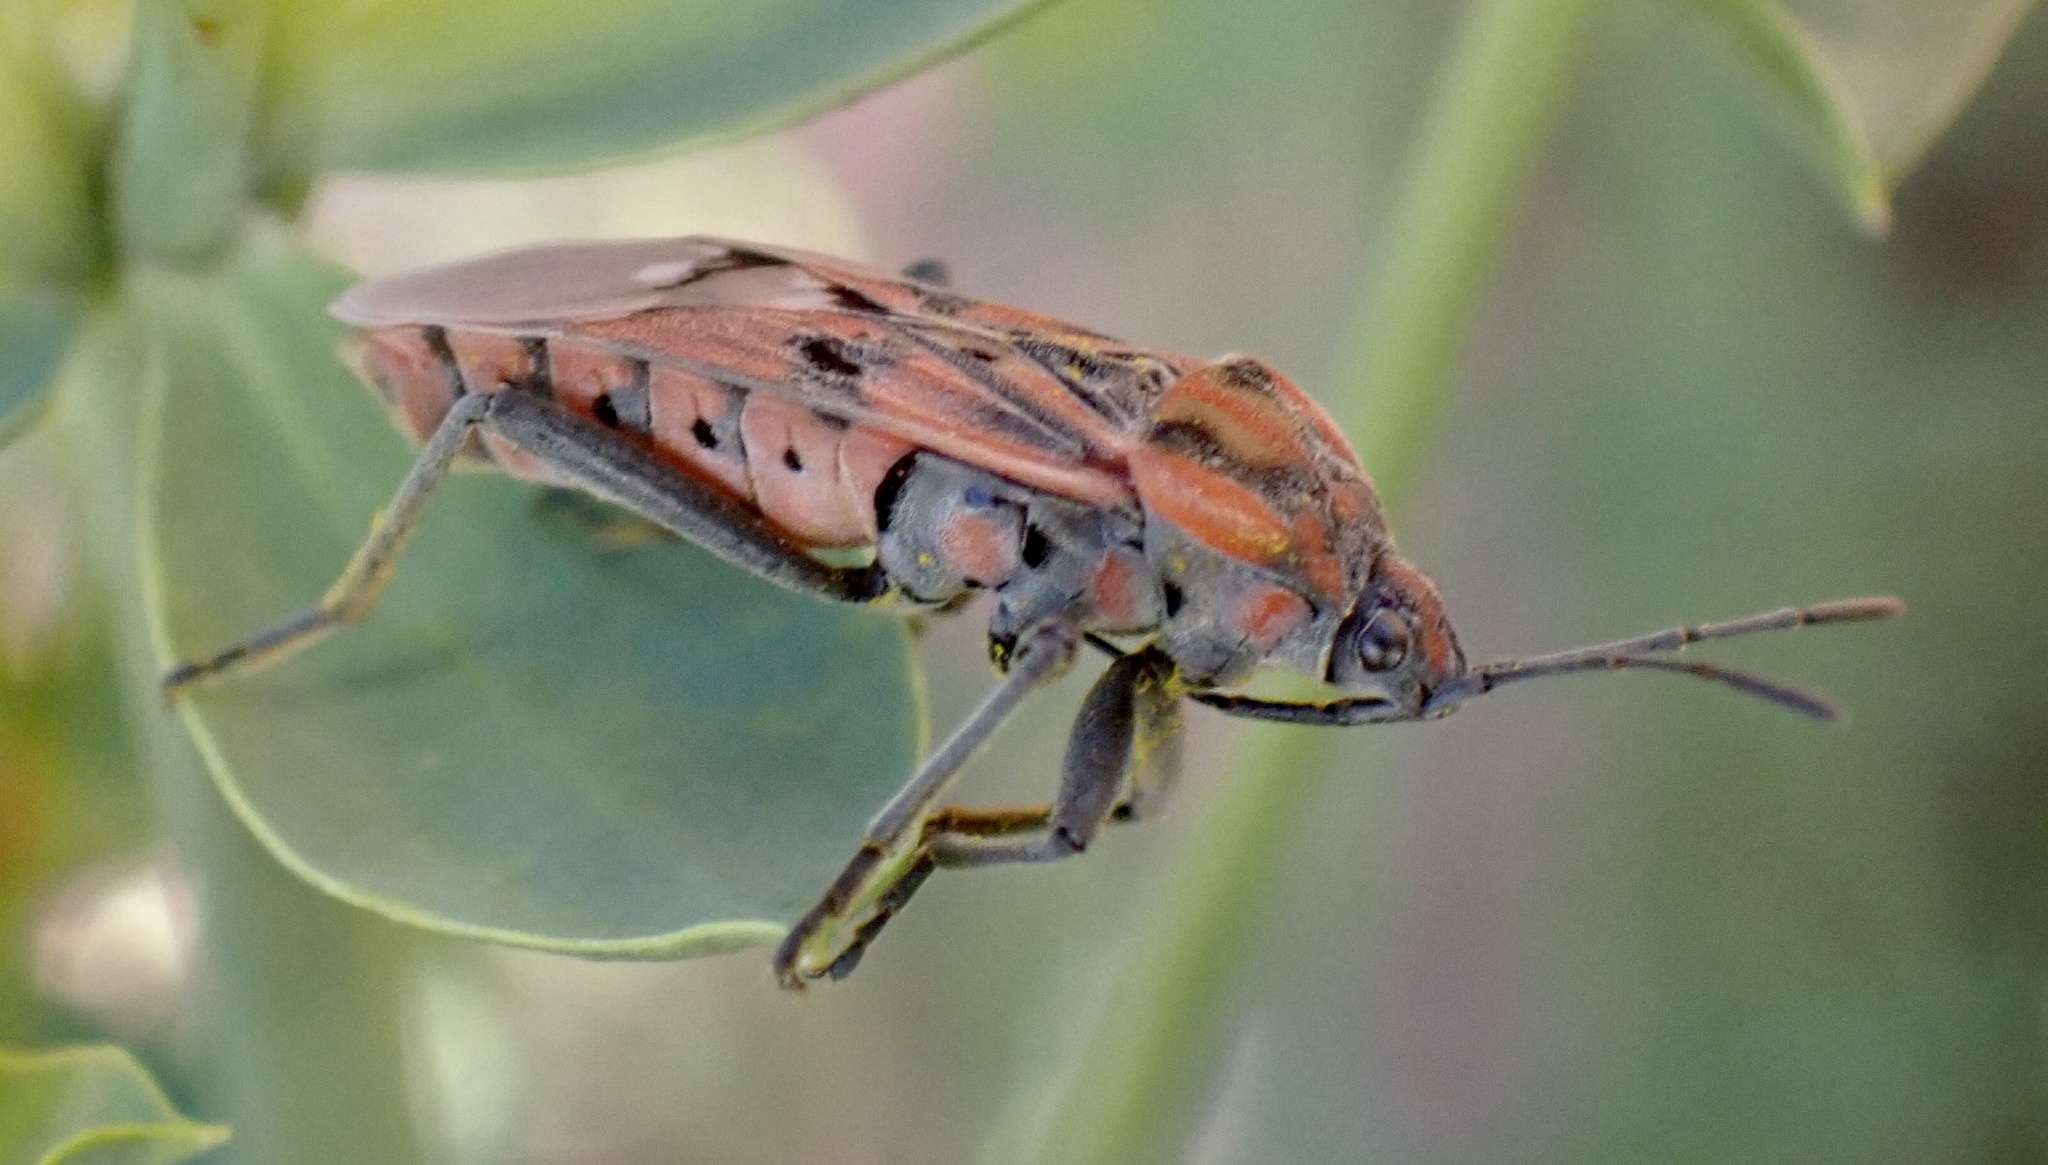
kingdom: Animalia
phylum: Arthropoda
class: Insecta
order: Hemiptera
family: Lygaeidae
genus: Spilostethus
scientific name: Spilostethus pandurus
